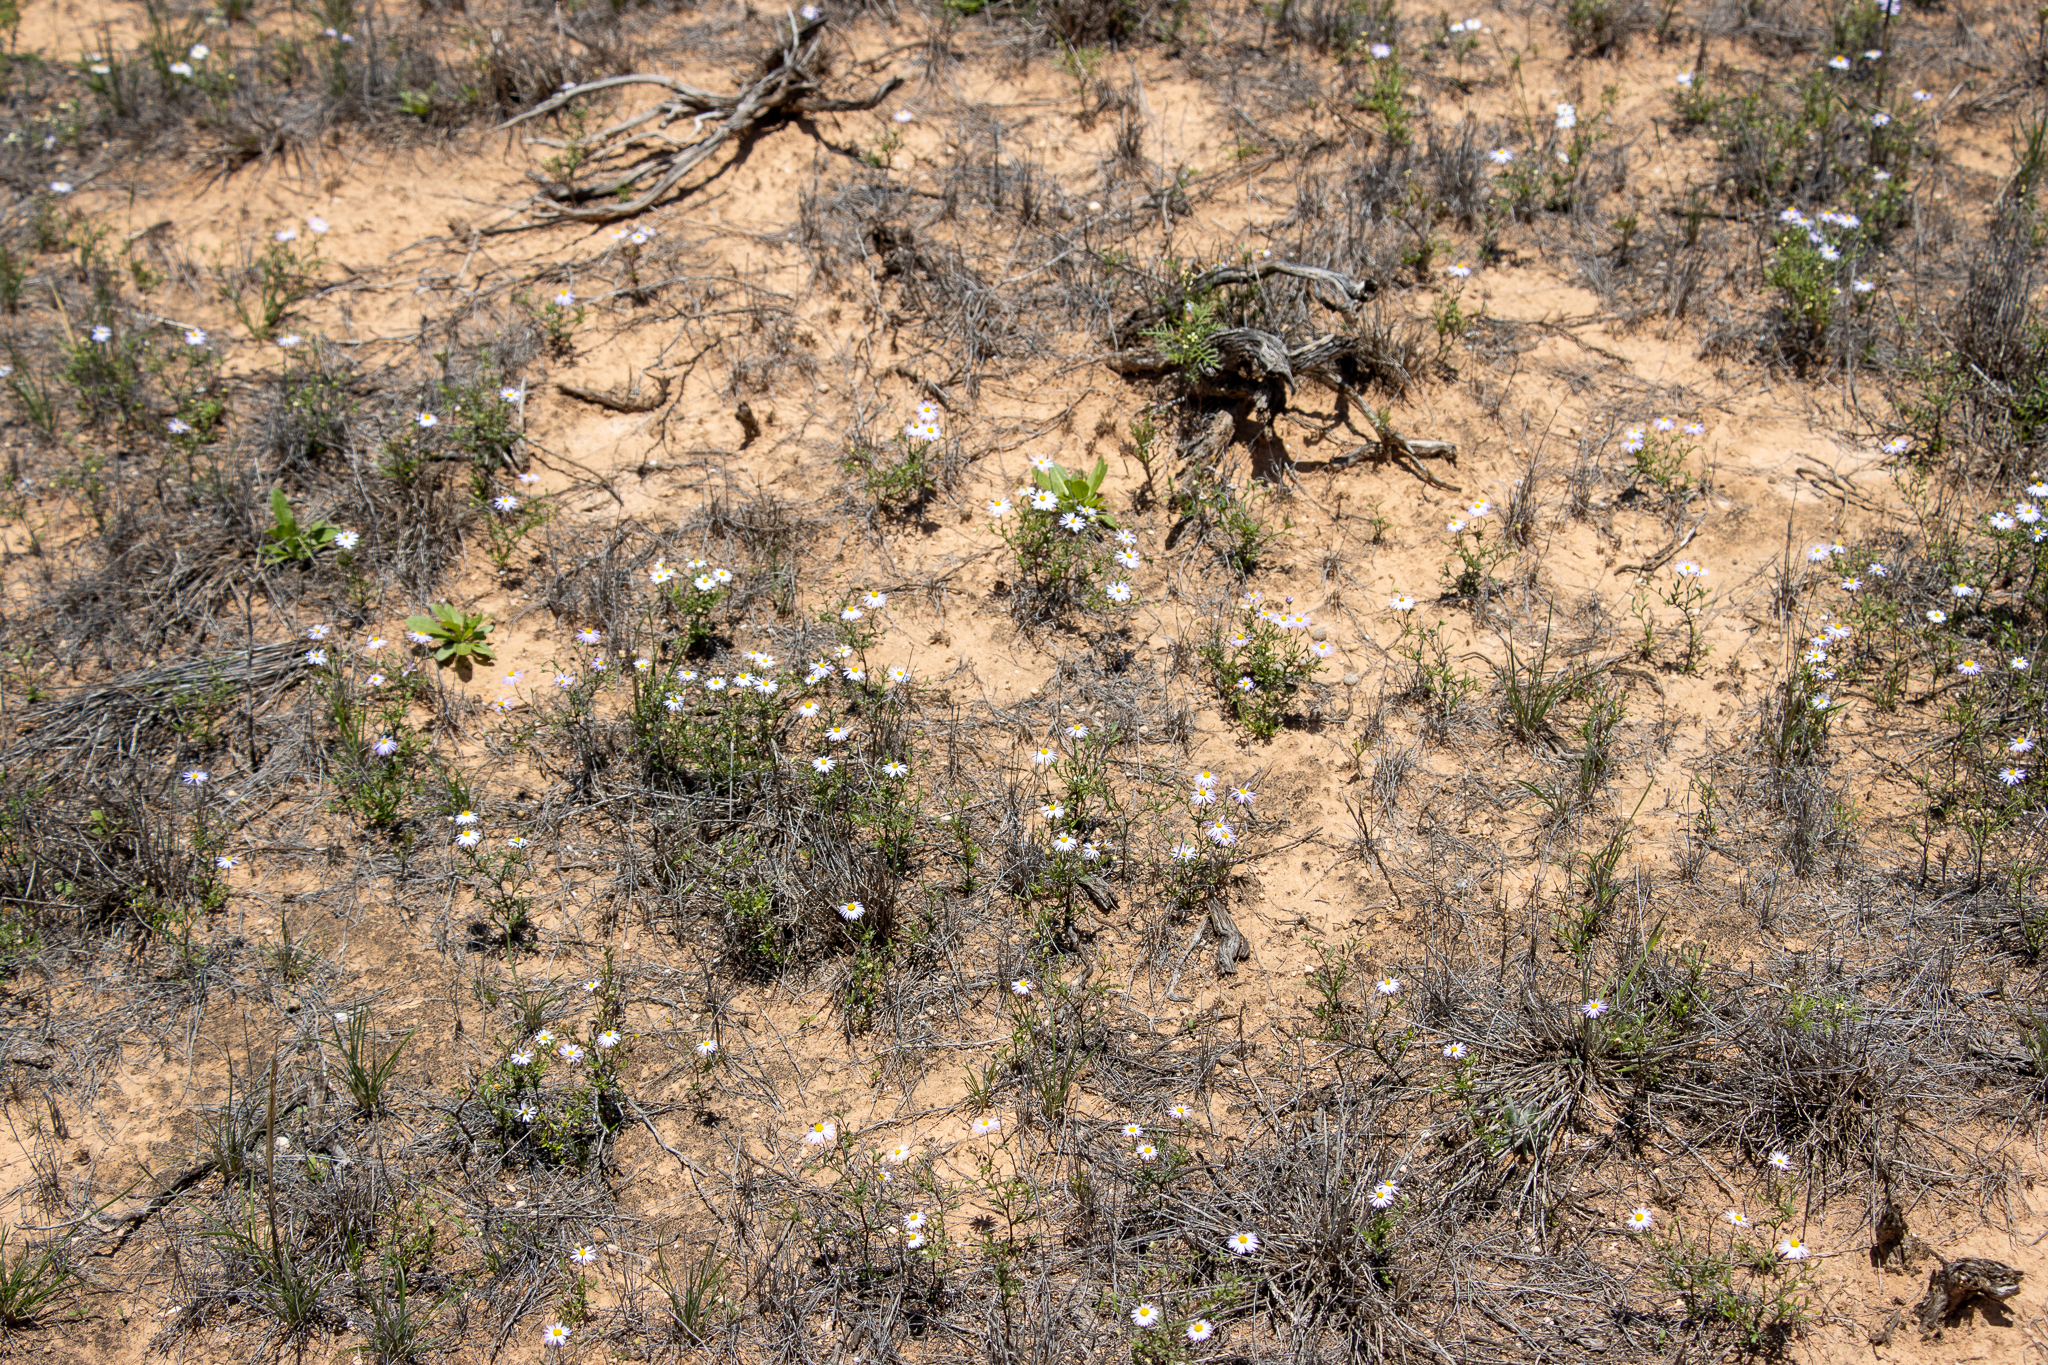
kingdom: Plantae
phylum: Tracheophyta
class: Magnoliopsida
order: Asterales
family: Asteraceae
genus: Brachyscome
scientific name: Brachyscome ciliaris
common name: Variable daisy
